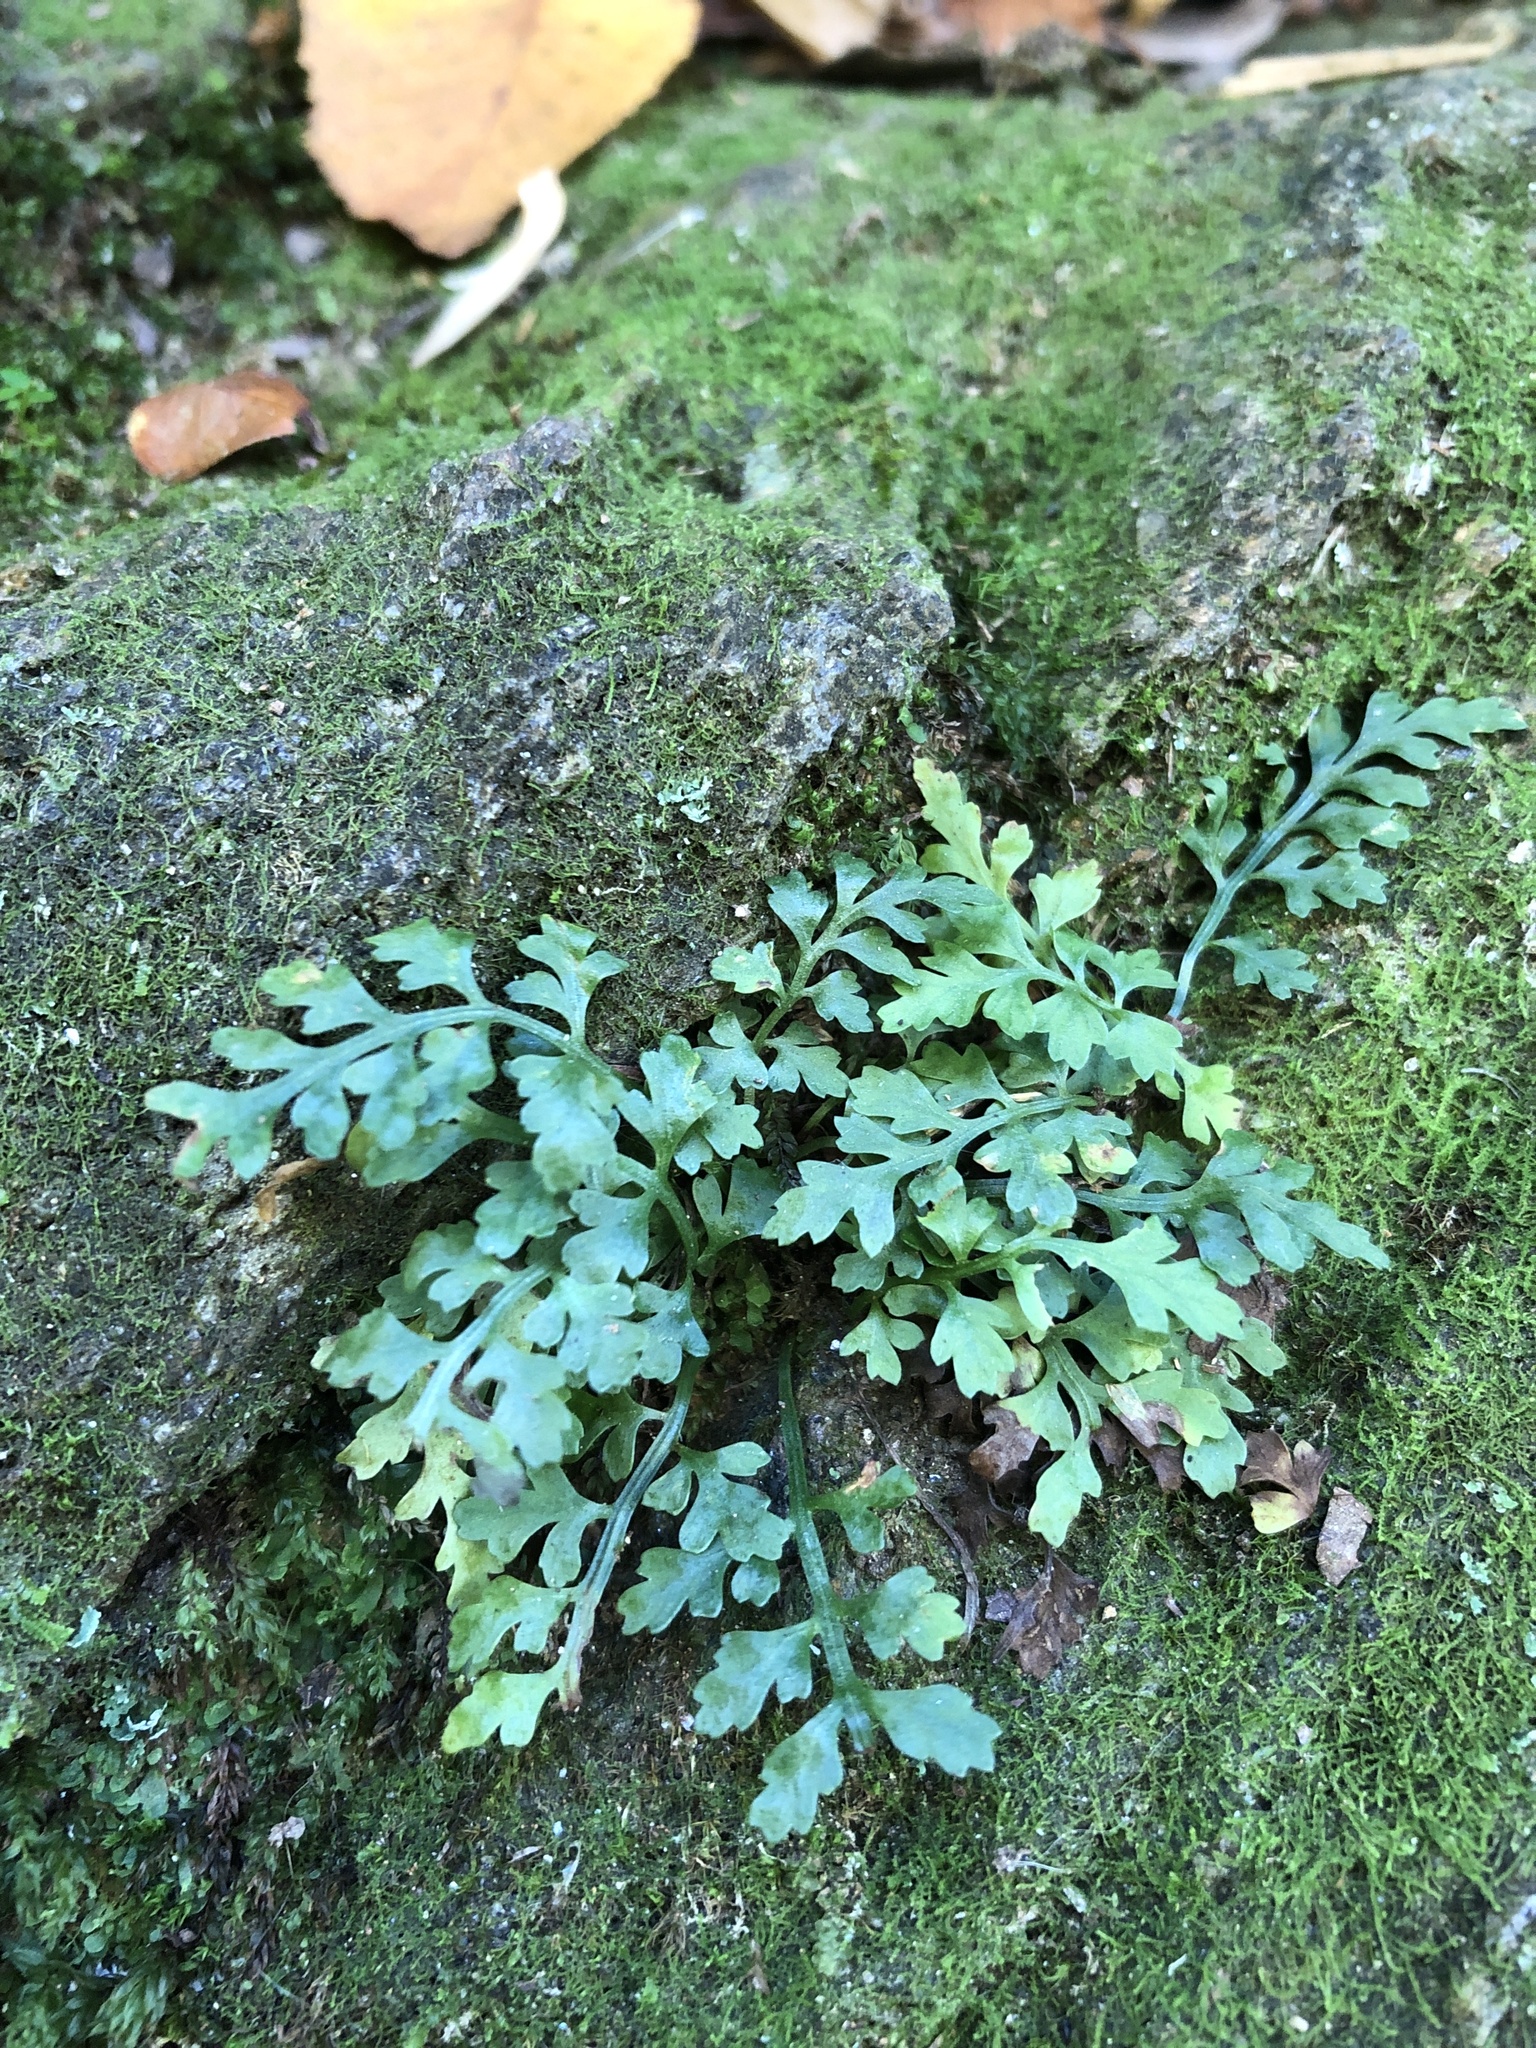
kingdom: Plantae
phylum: Tracheophyta
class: Polypodiopsida
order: Polypodiales
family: Aspleniaceae
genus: Asplenium
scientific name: Asplenium montanum
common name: Mountain spleenwort
